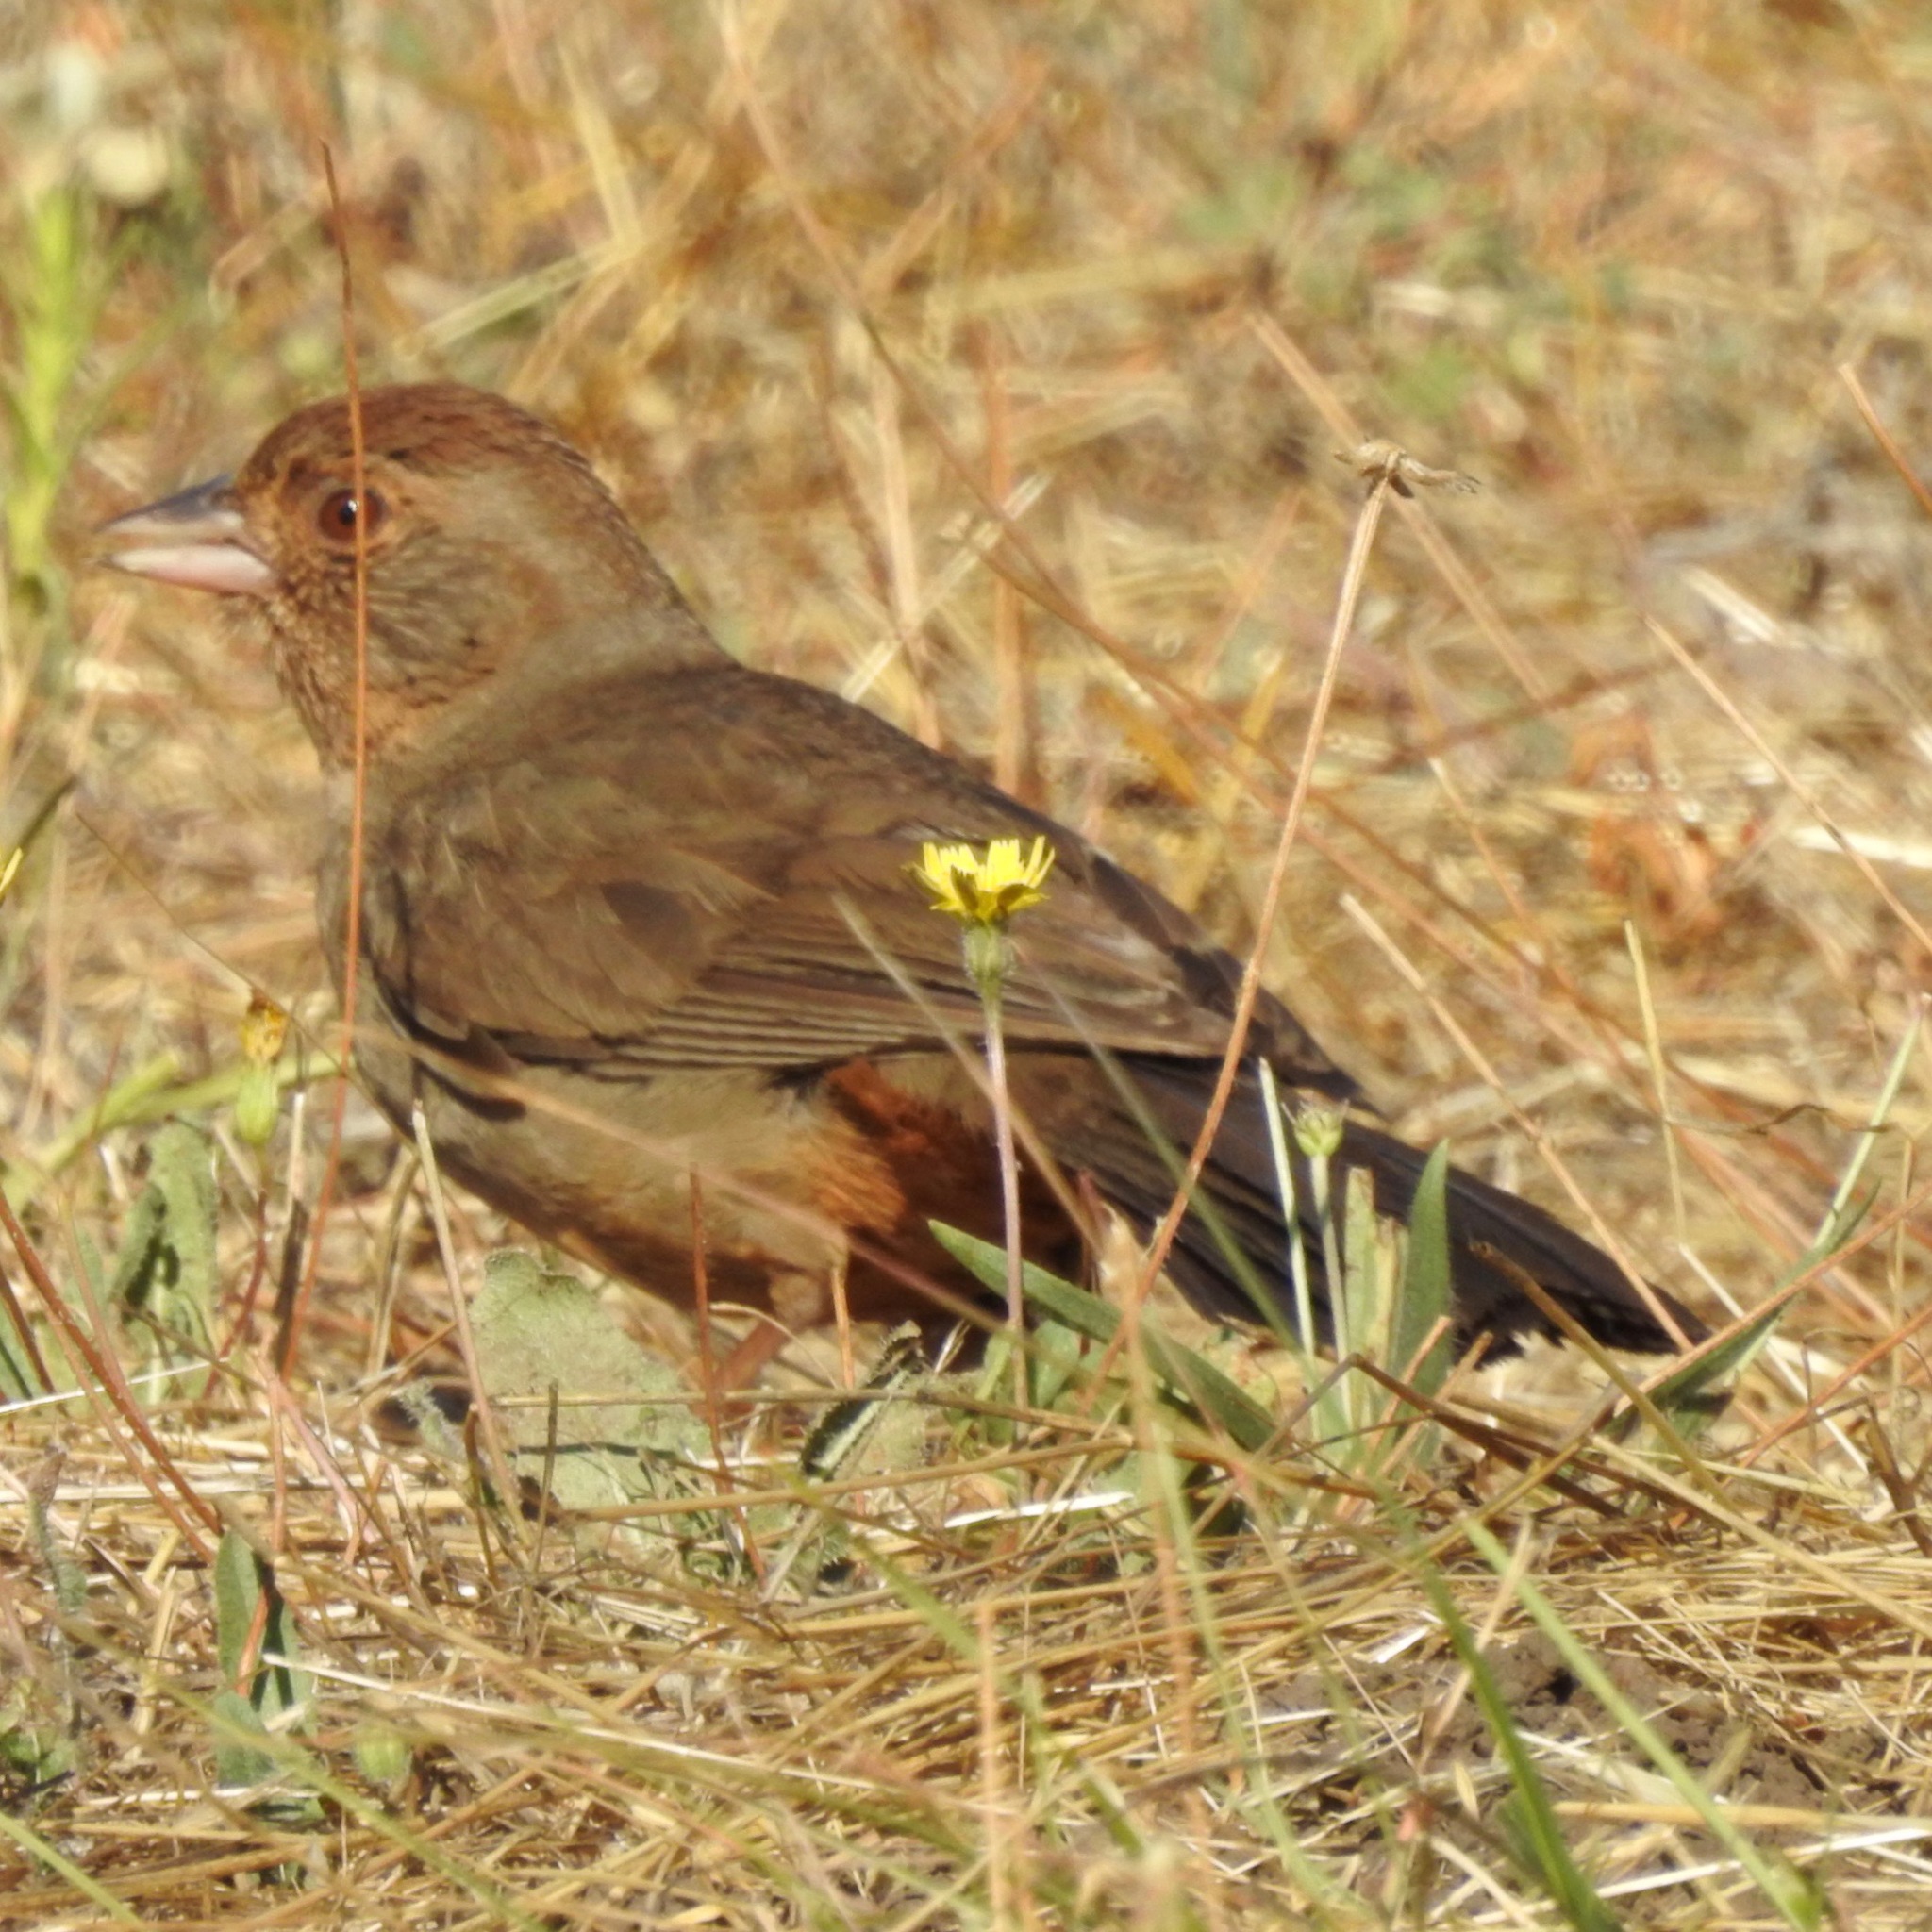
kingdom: Animalia
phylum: Chordata
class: Aves
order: Passeriformes
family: Passerellidae
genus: Melozone
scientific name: Melozone crissalis
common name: California towhee
